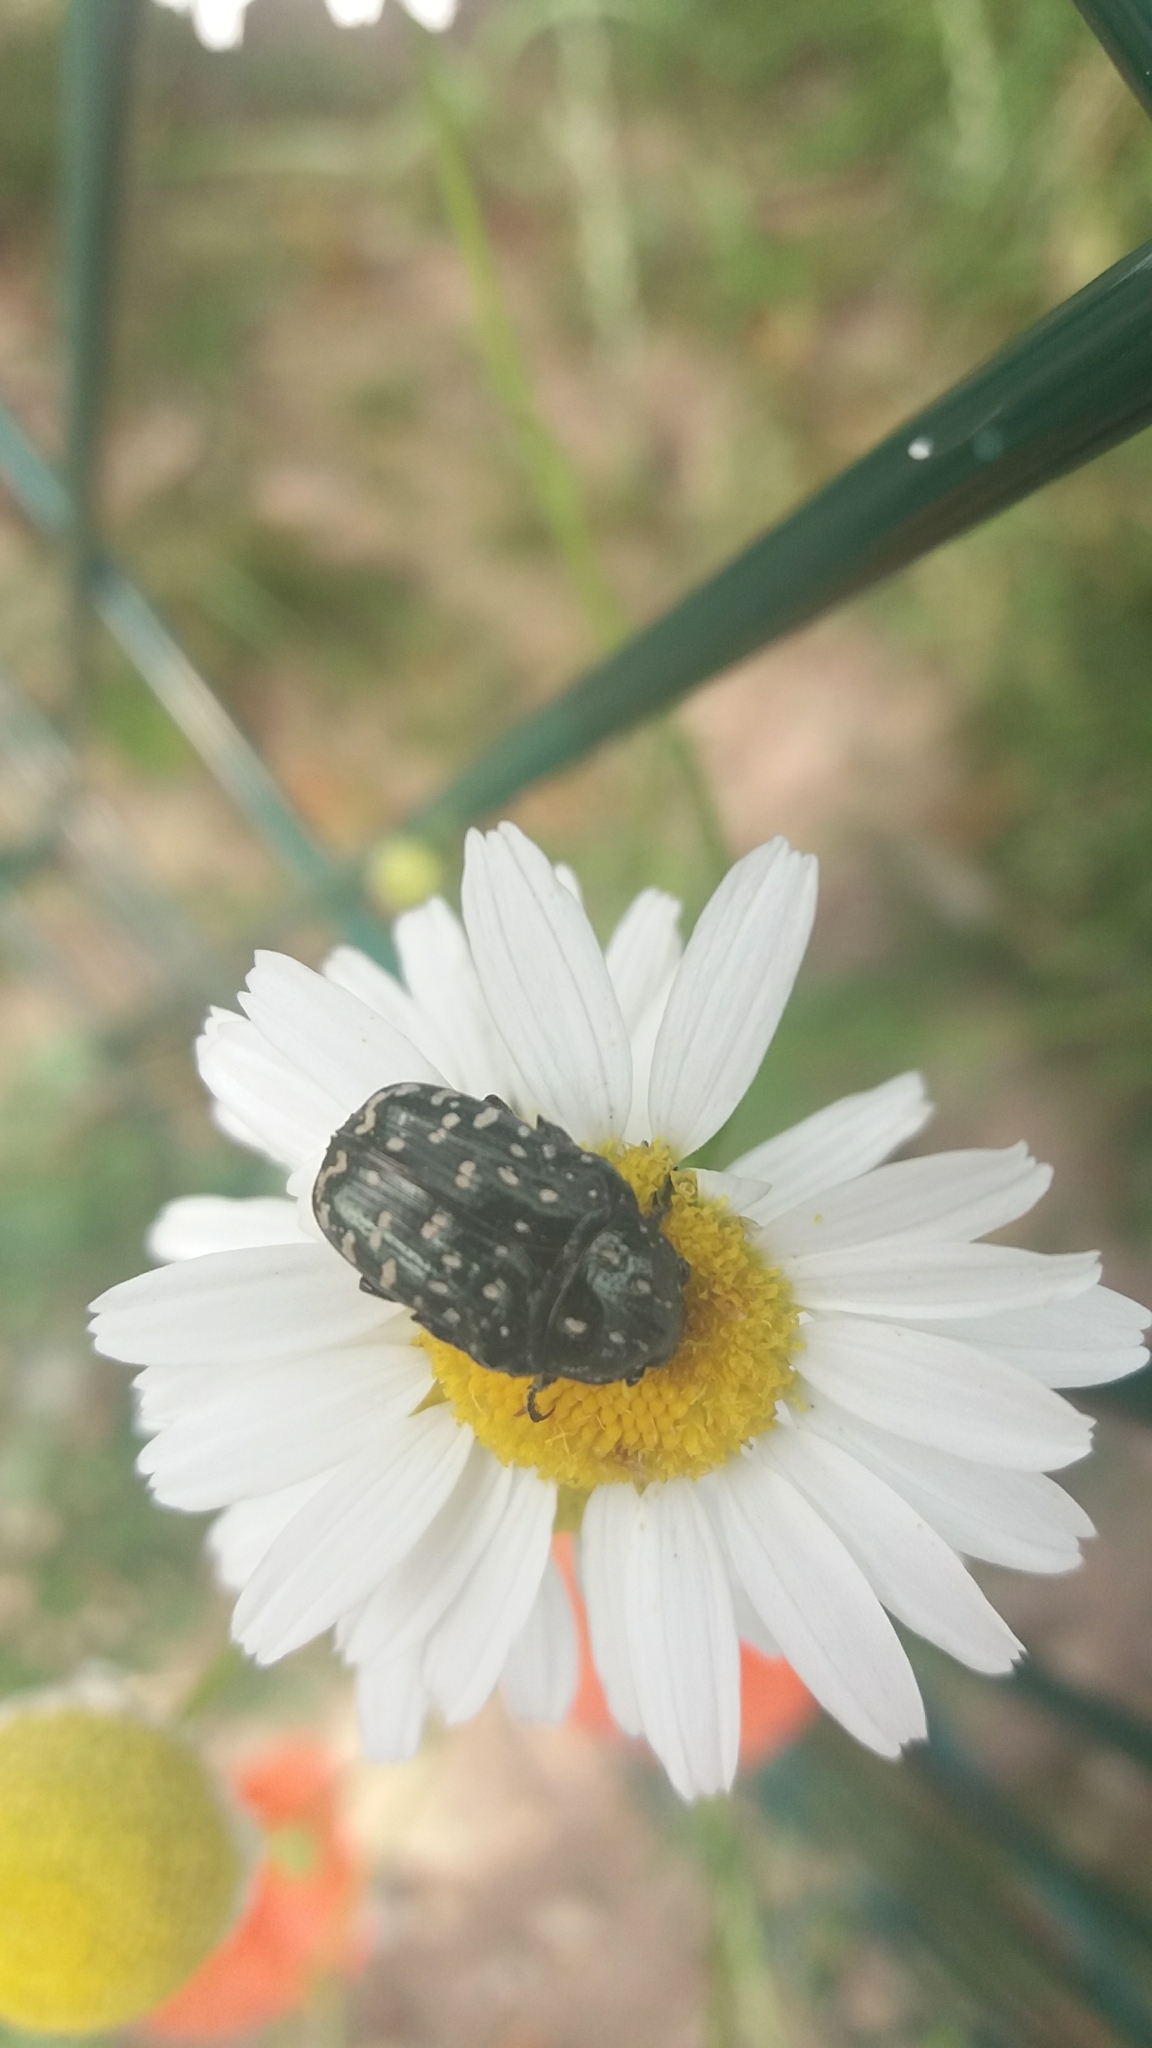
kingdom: Animalia
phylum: Arthropoda
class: Insecta
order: Coleoptera
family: Scarabaeidae
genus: Oxythyrea
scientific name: Oxythyrea funesta
